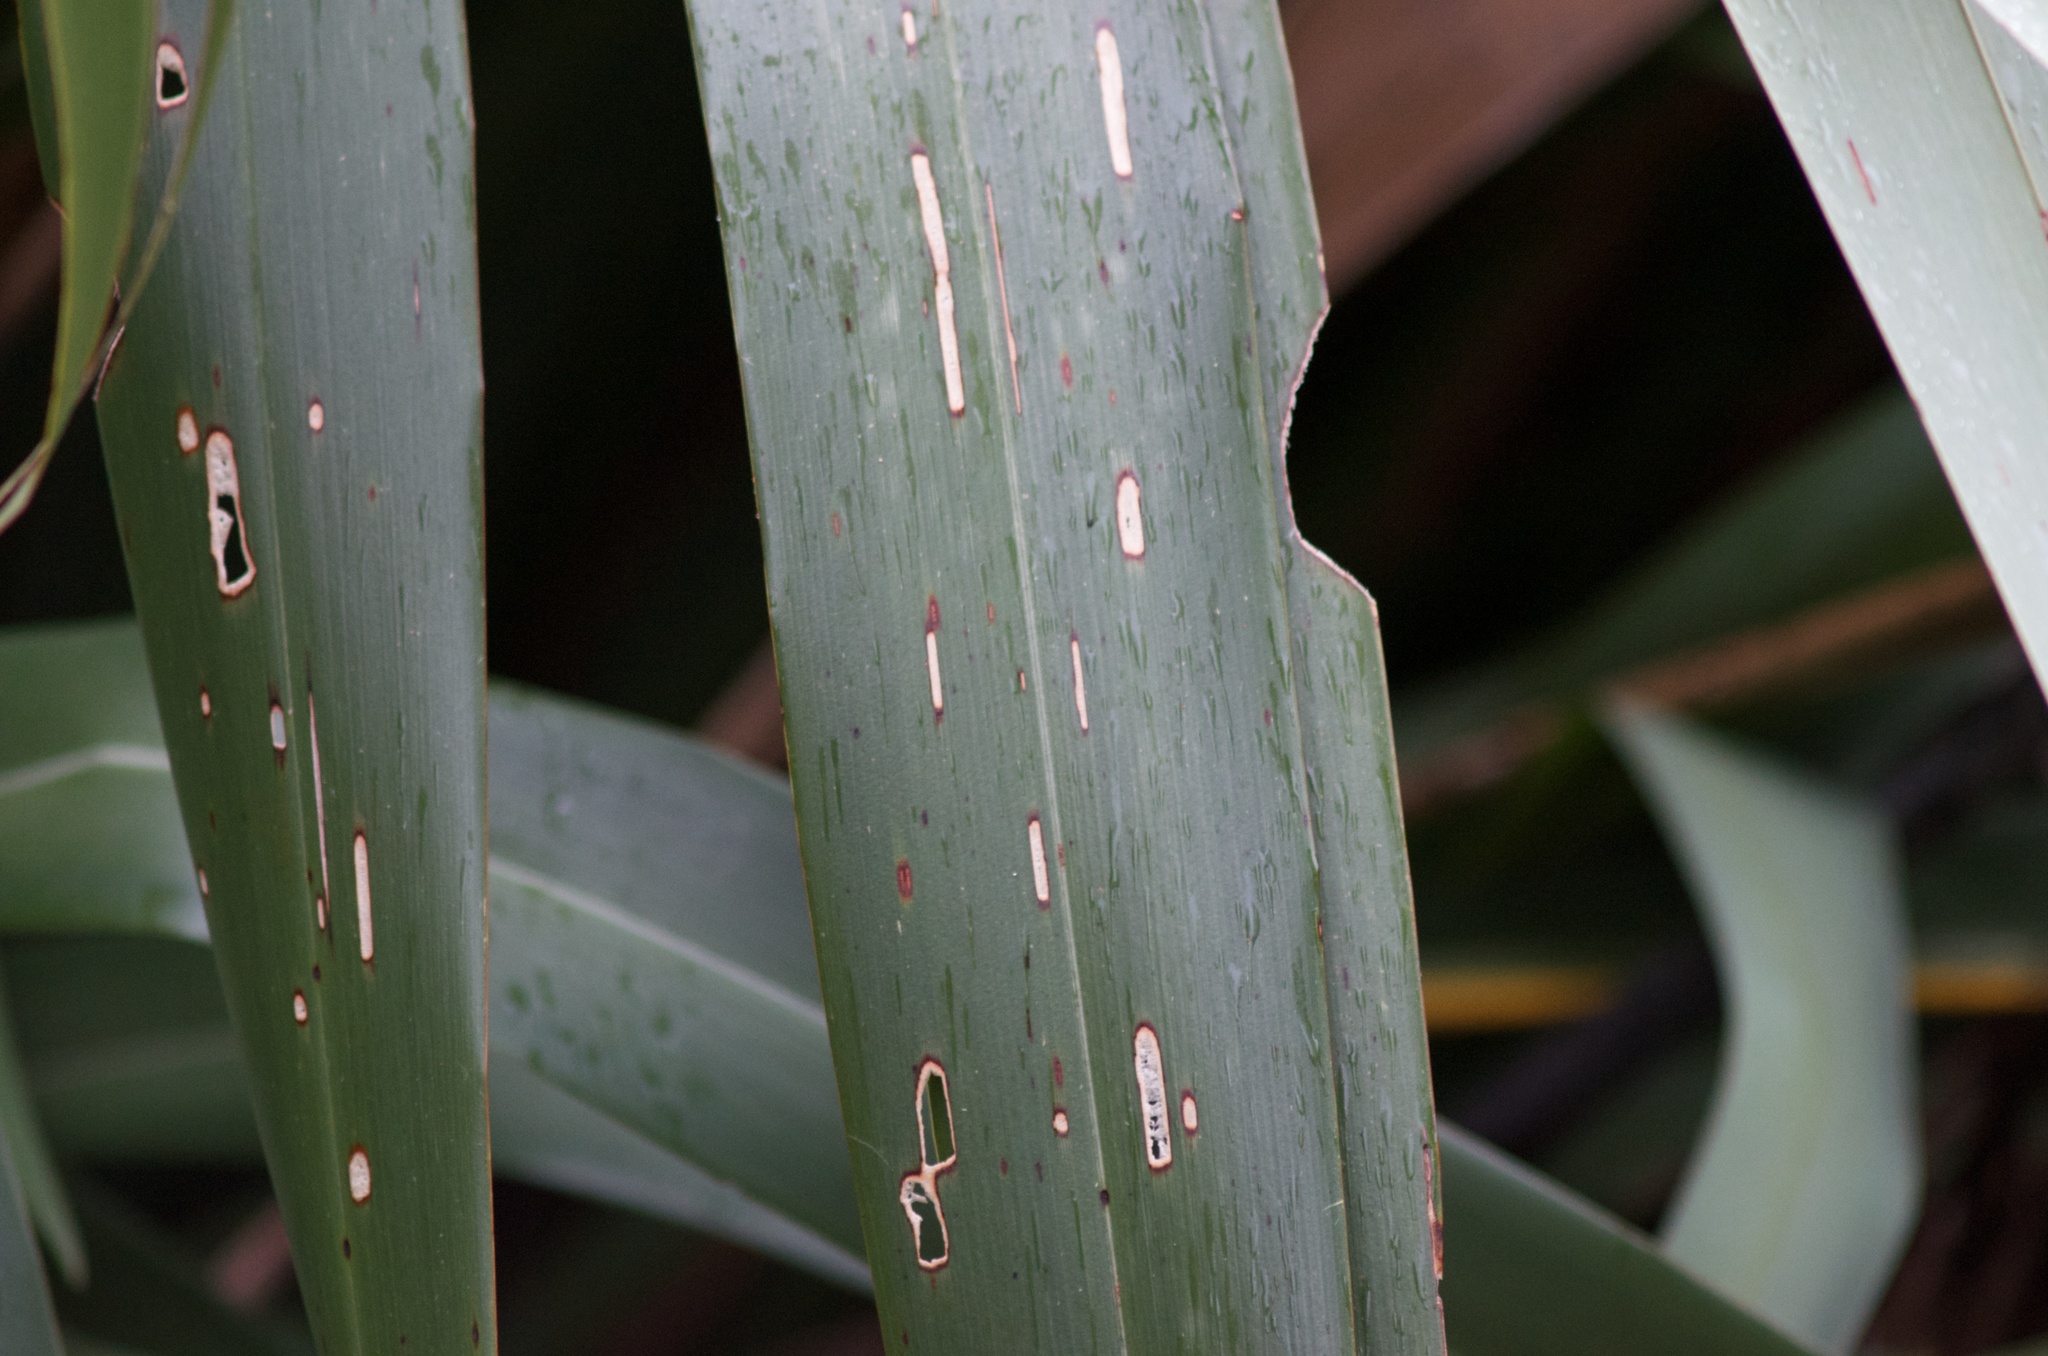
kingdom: Animalia
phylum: Arthropoda
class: Insecta
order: Lepidoptera
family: Noctuidae
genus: Ichneutica
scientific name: Ichneutica
